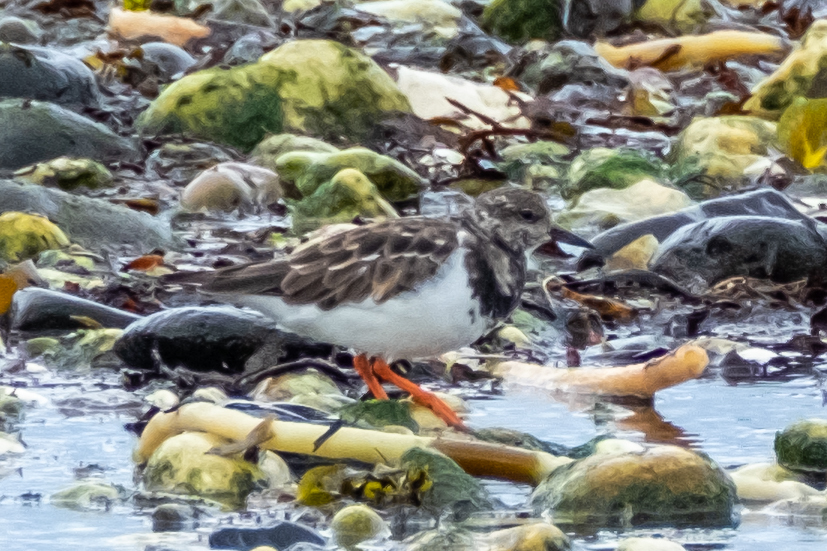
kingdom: Animalia
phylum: Chordata
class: Aves
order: Charadriiformes
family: Scolopacidae
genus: Arenaria
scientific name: Arenaria interpres
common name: Ruddy turnstone
